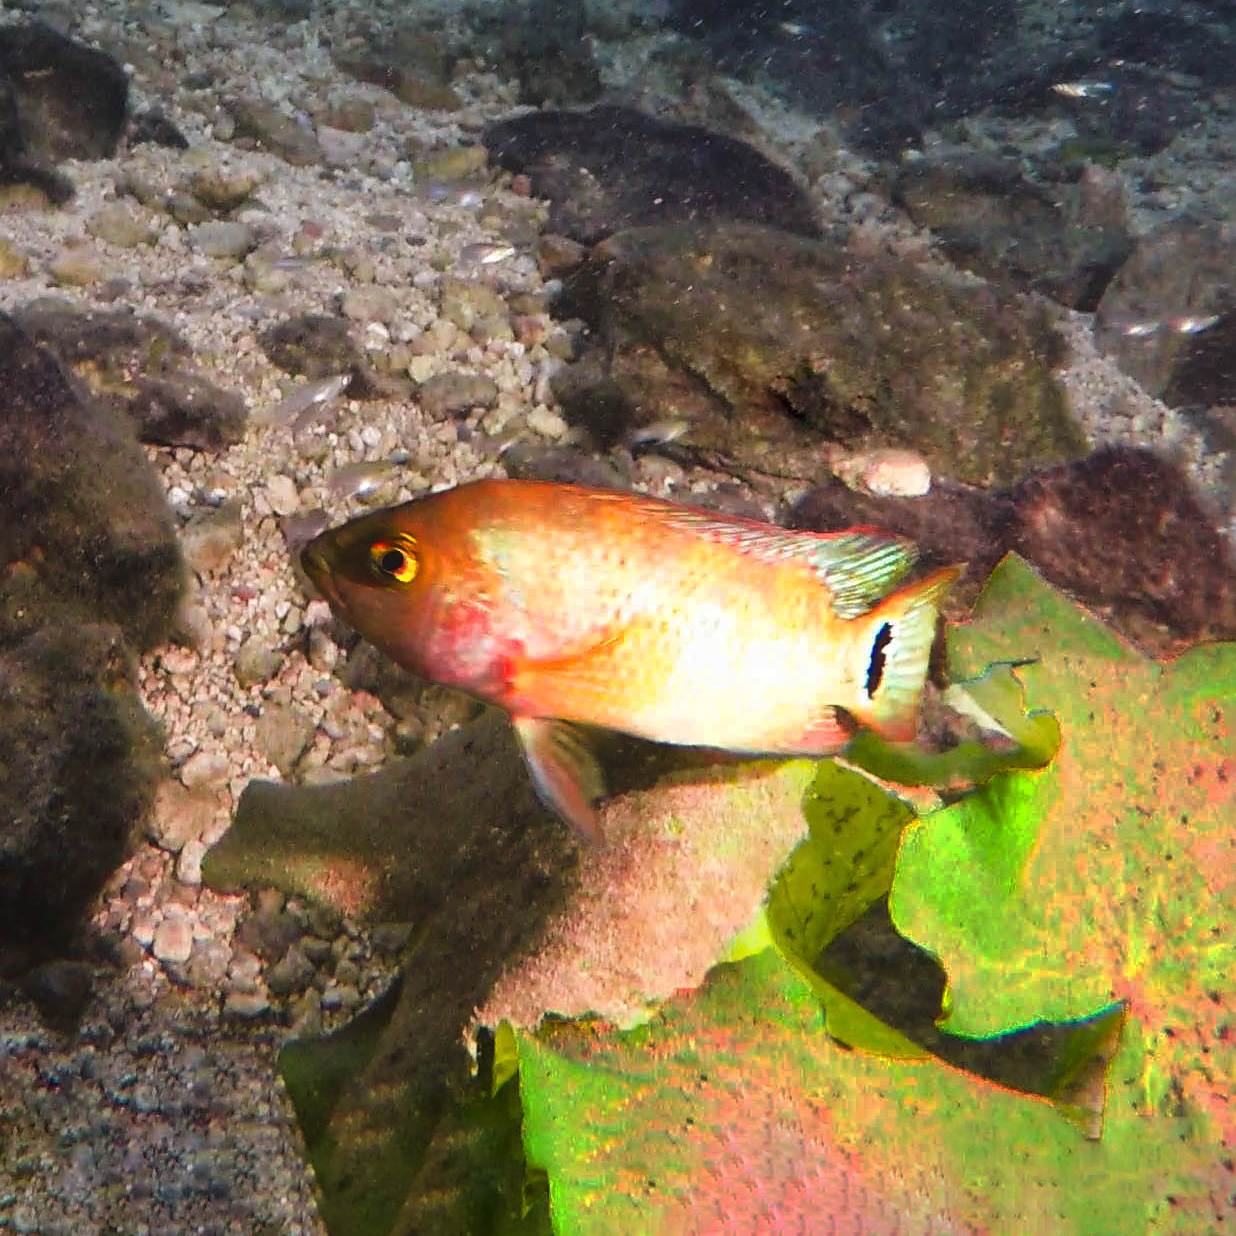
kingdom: Animalia
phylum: Chordata
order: Perciformes
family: Cichlidae
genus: Mayaheros
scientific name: Mayaheros urophthalmus
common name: Mayan cichlid
